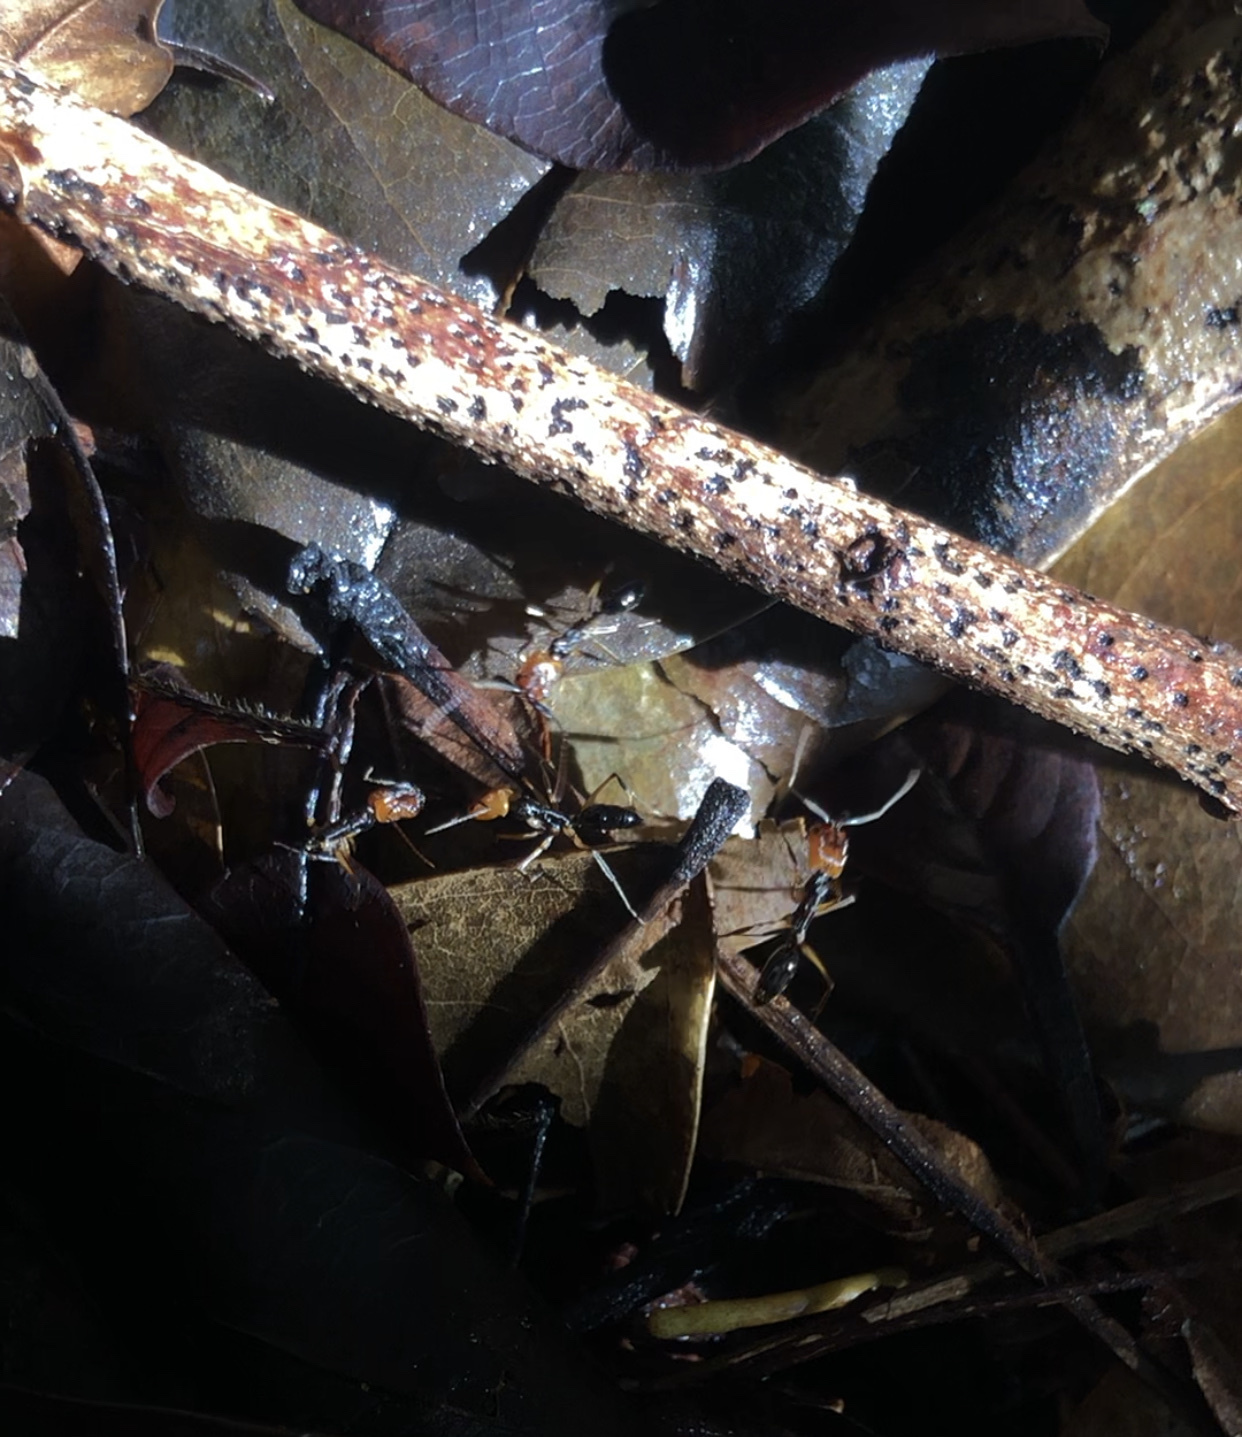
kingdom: Animalia
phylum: Arthropoda
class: Insecta
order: Hymenoptera
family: Formicidae
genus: Odontomachus
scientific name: Odontomachus erythrocephalus
